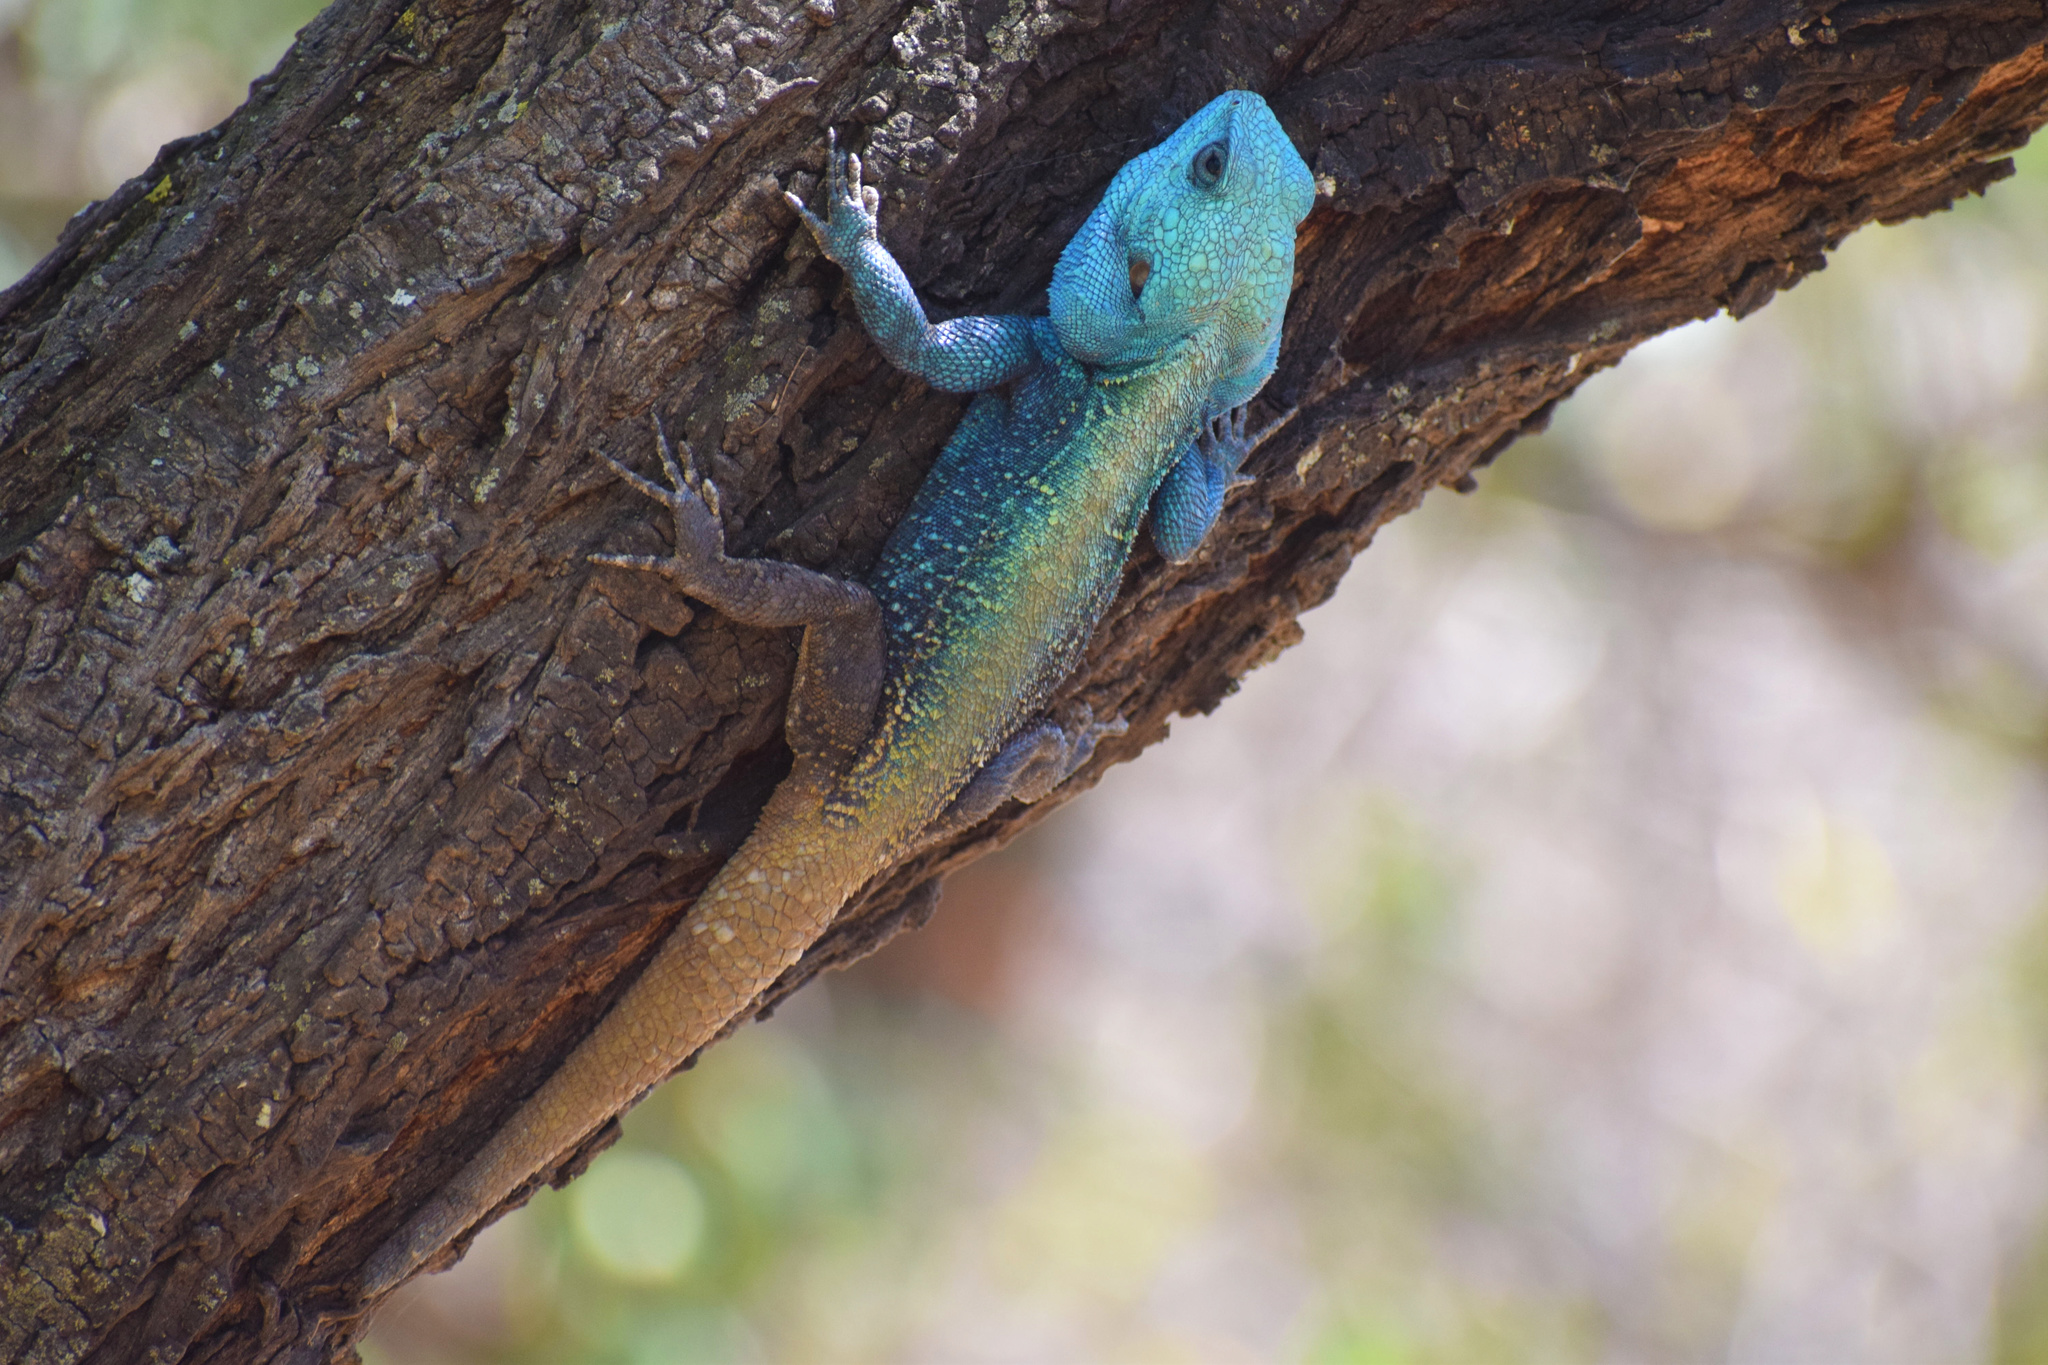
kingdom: Animalia
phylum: Chordata
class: Squamata
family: Agamidae
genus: Acanthocercus
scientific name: Acanthocercus atricollis
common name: Southern tree agama
